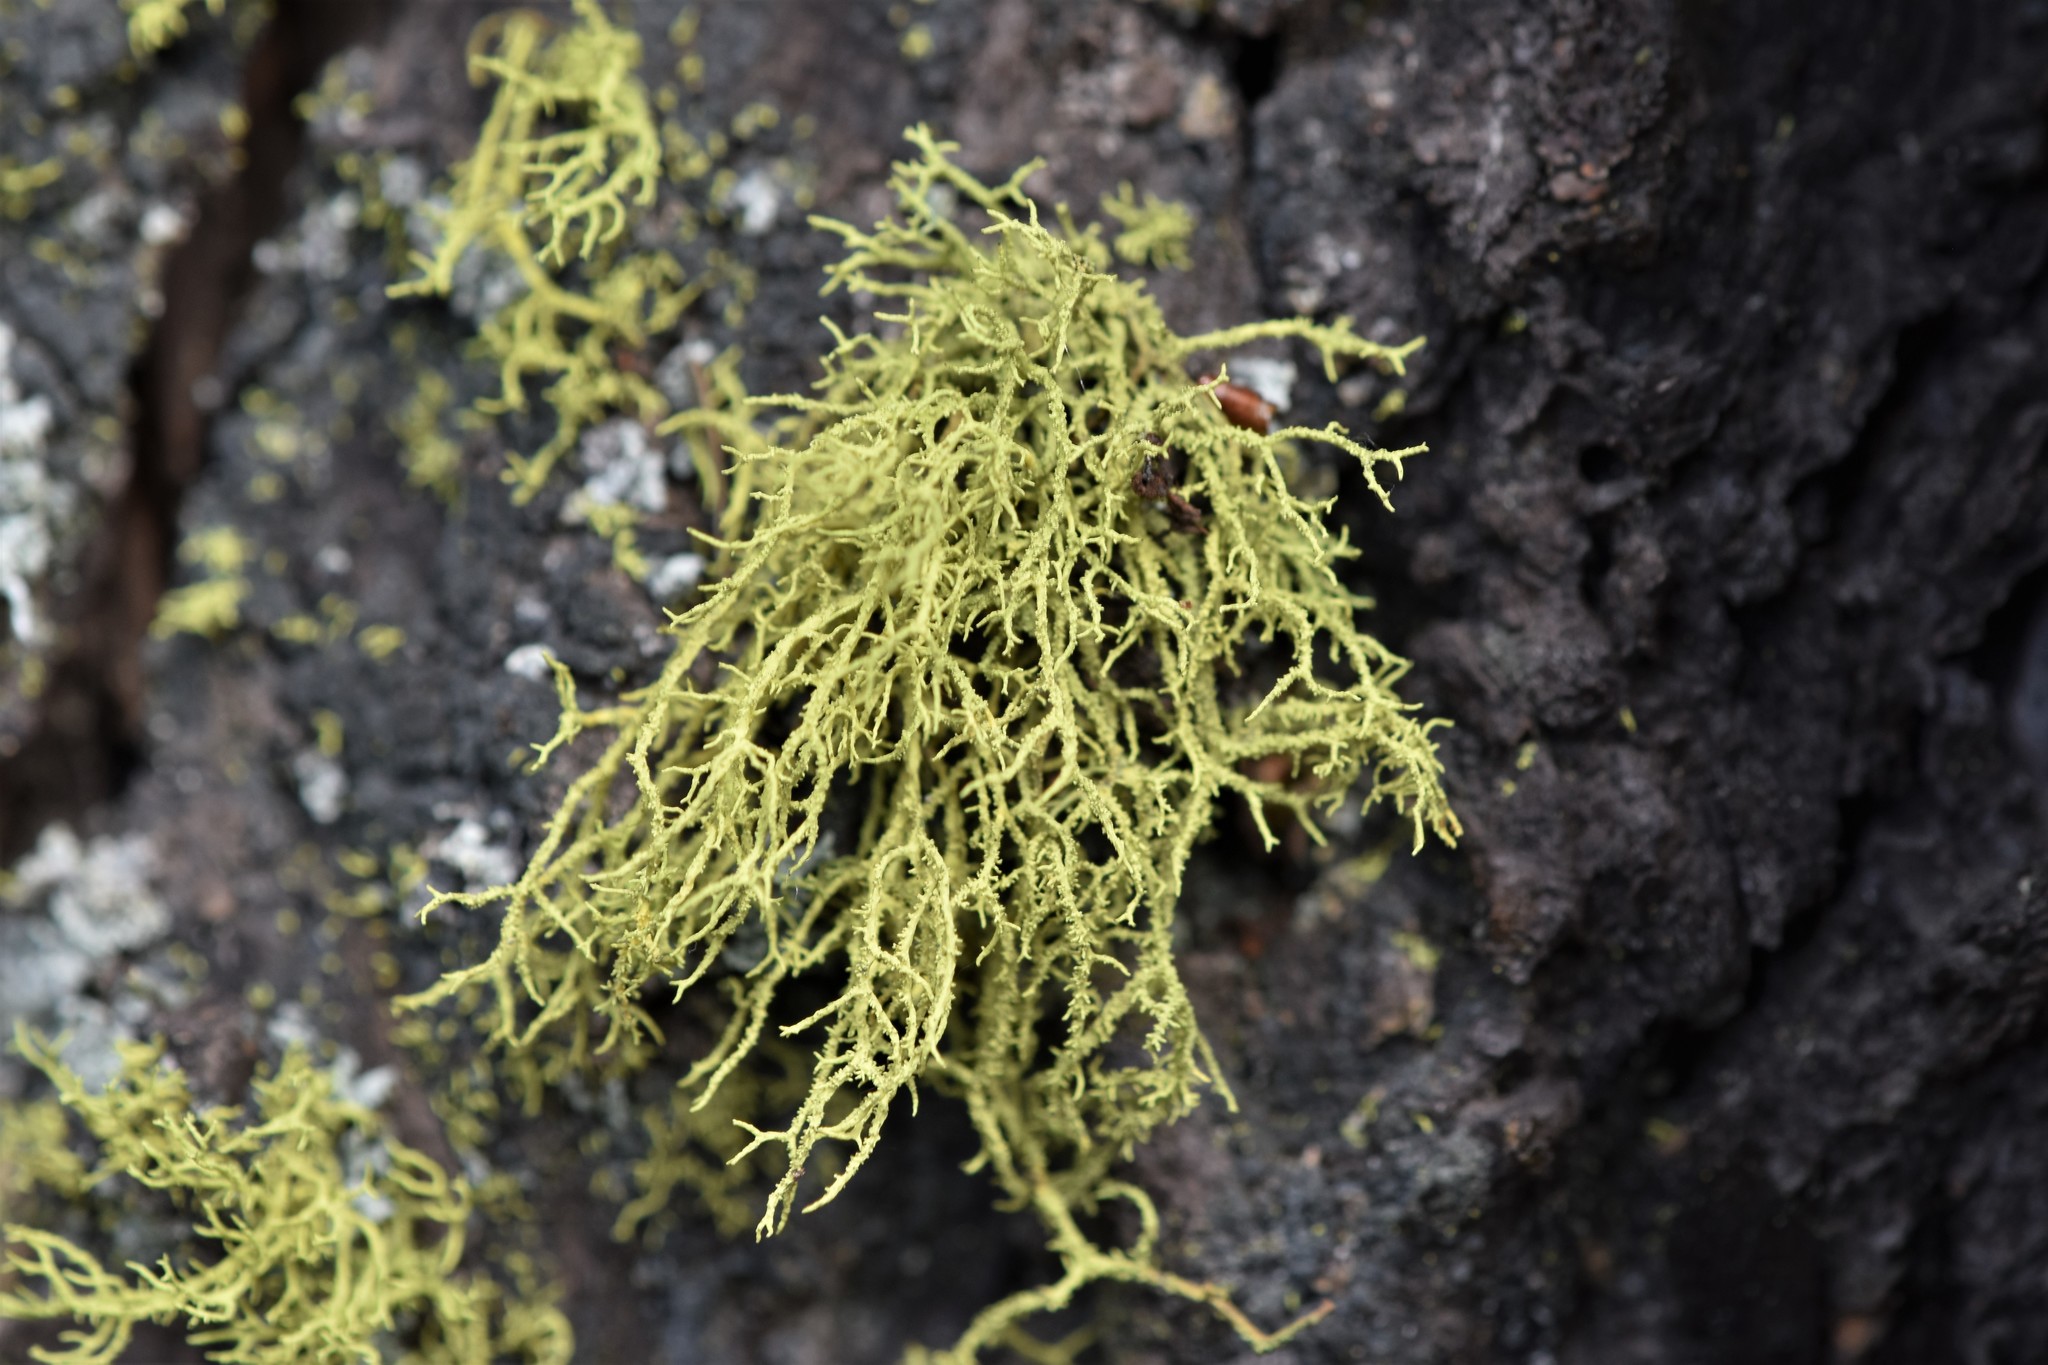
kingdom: Fungi
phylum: Ascomycota
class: Lecanoromycetes
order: Lecanorales
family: Parmeliaceae
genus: Letharia
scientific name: Letharia vulpina
